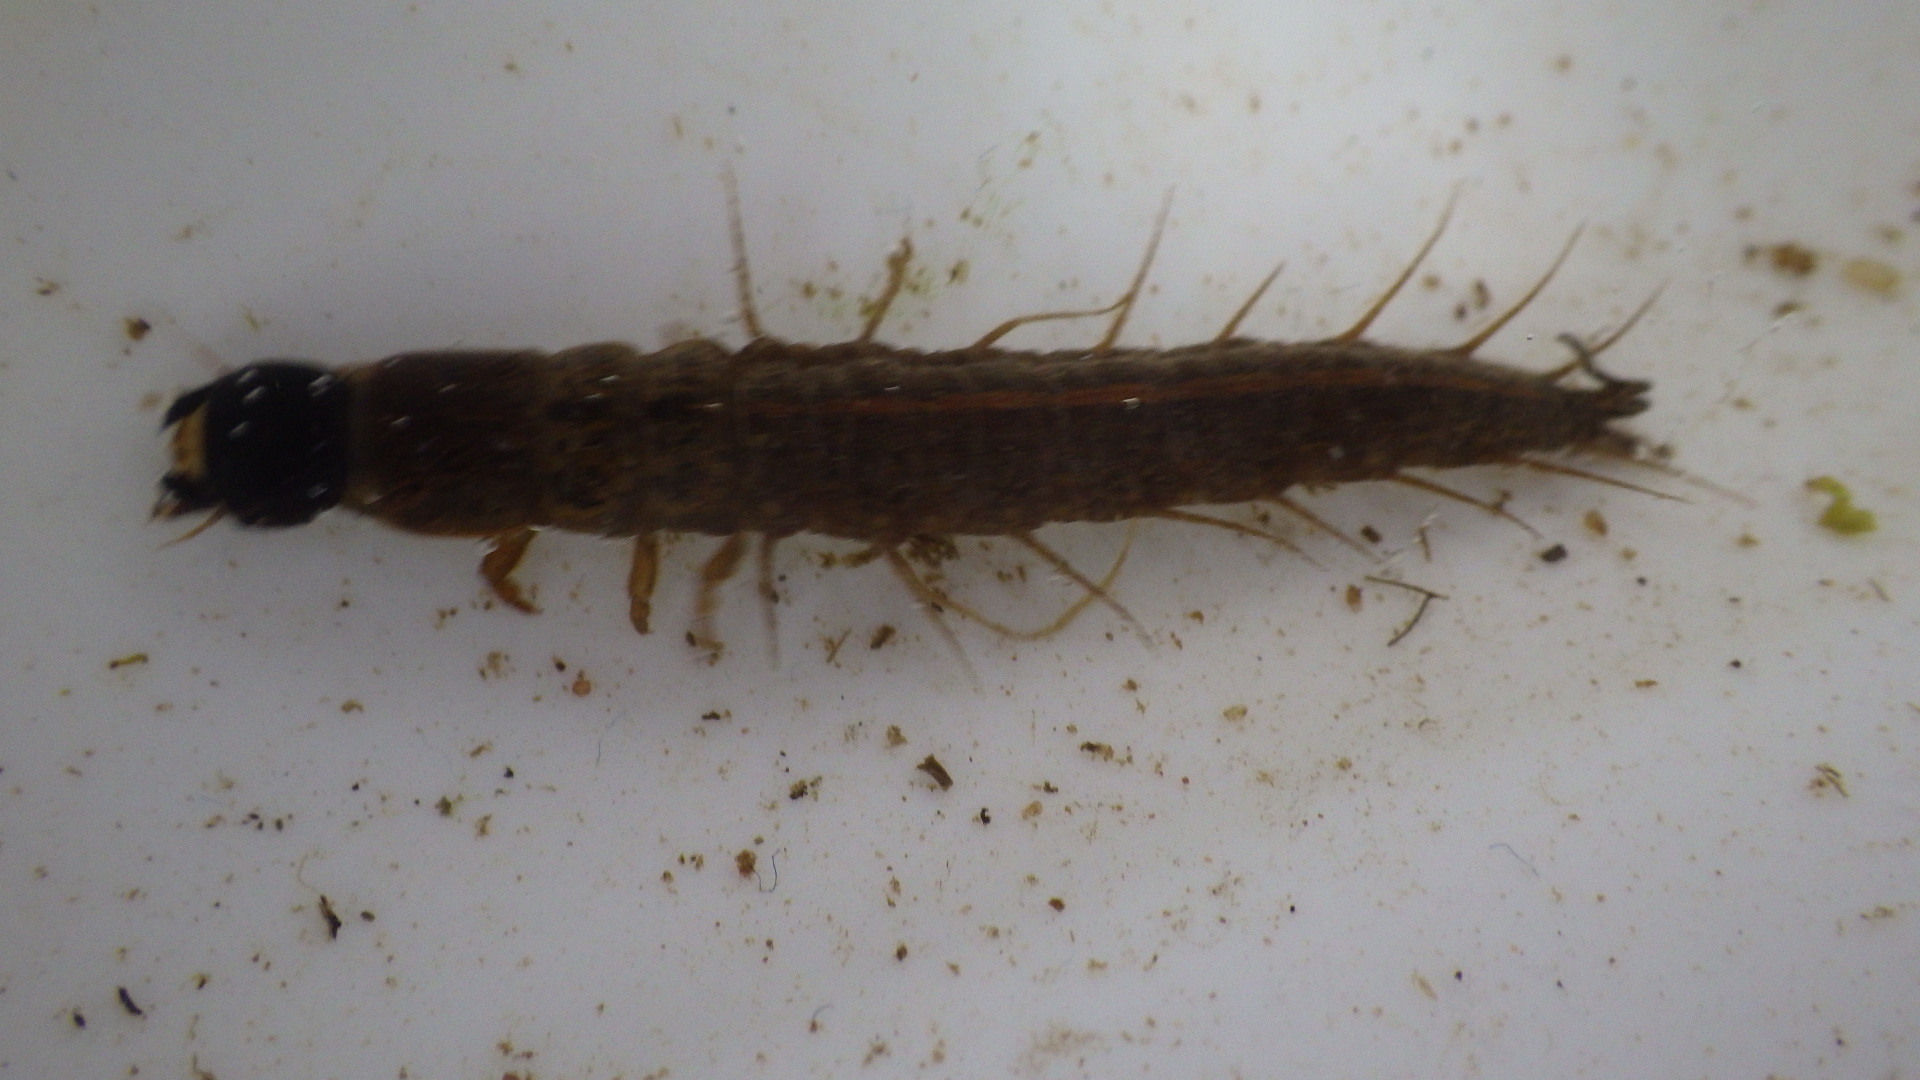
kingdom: Animalia
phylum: Arthropoda
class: Insecta
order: Megaloptera
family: Corydalidae
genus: Chauliodes
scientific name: Chauliodes pectinicornis
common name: Summer fishfly
